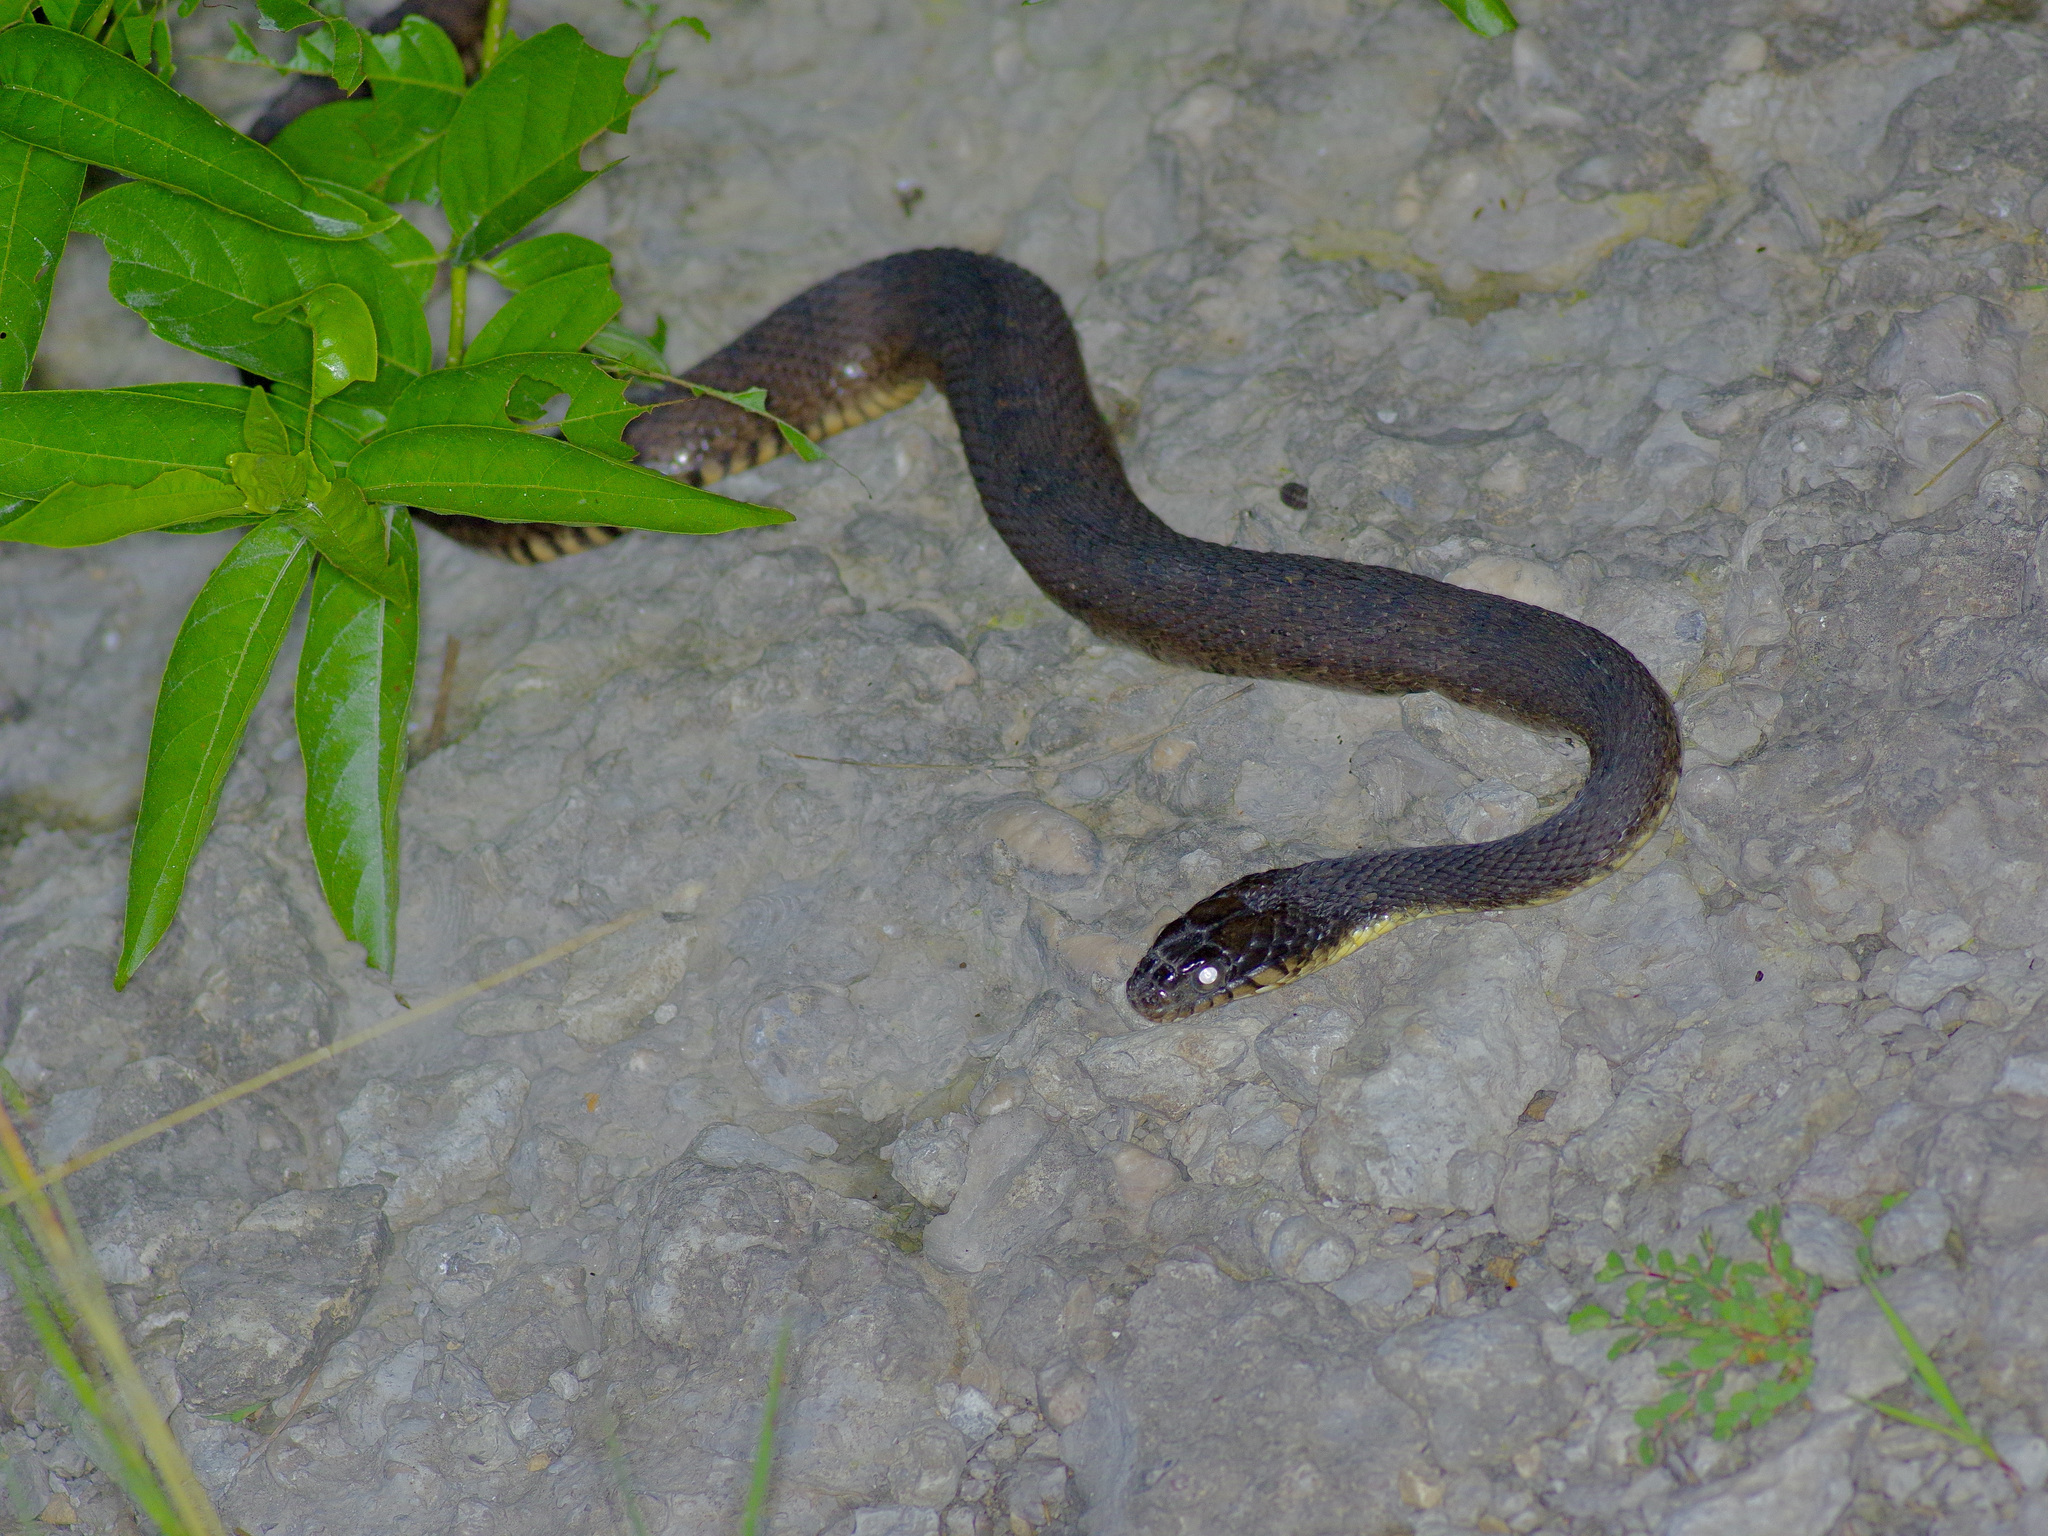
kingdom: Animalia
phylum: Chordata
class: Squamata
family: Colubridae
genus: Nerodia
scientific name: Nerodia erythrogaster
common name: Plainbelly water snake
